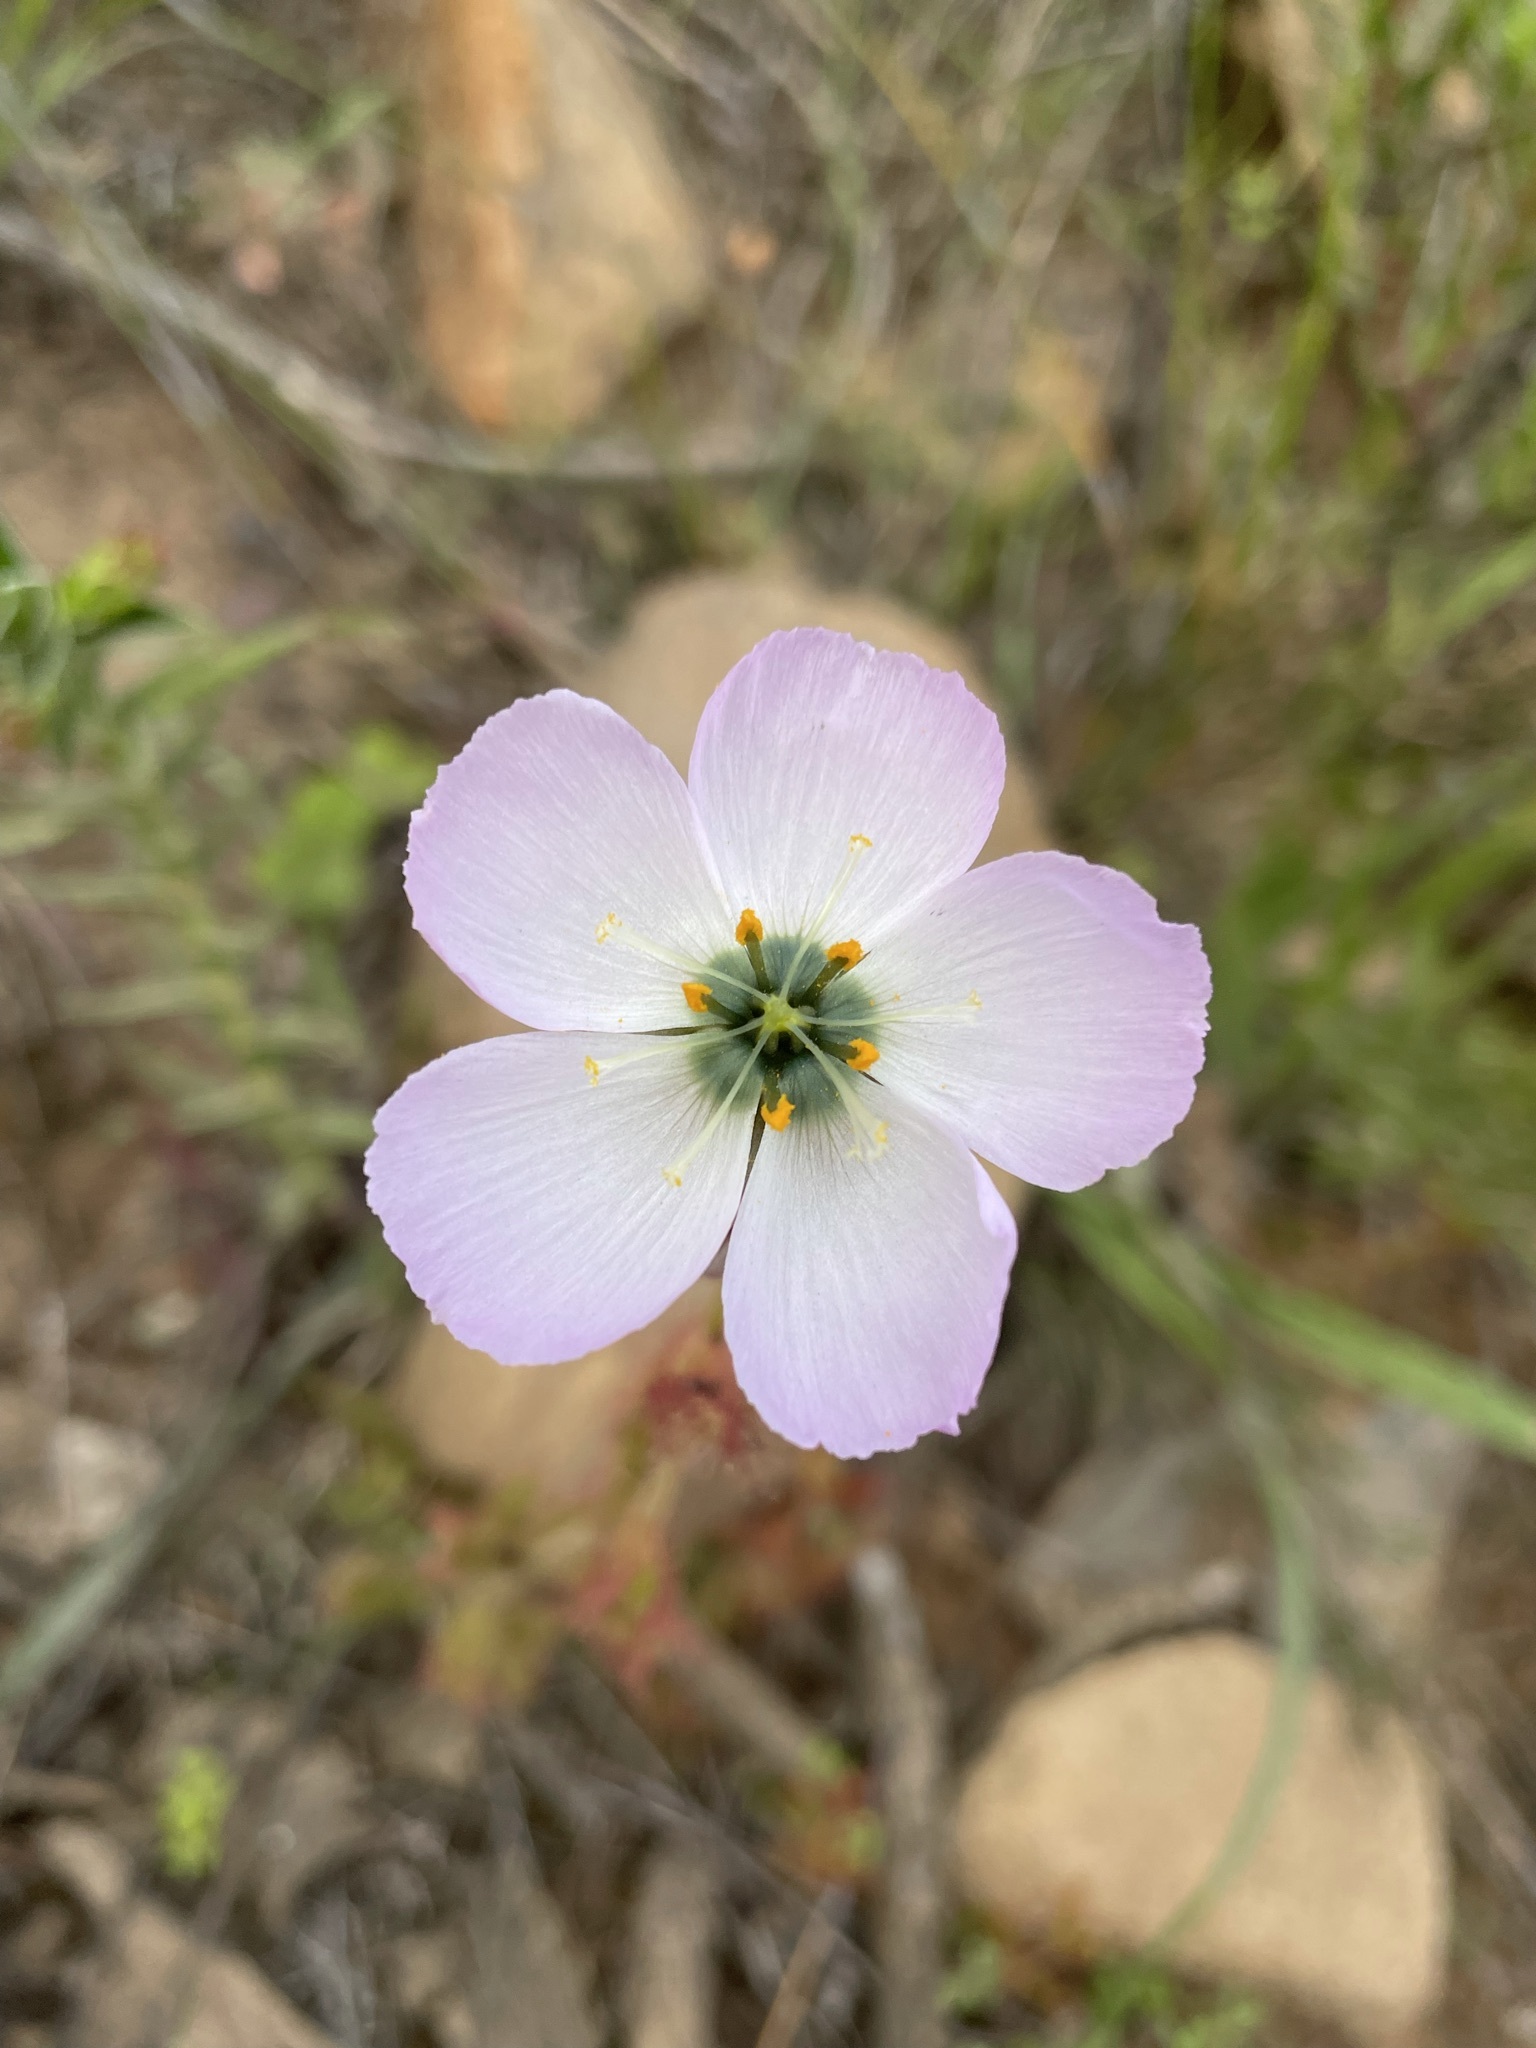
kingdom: Plantae
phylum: Tracheophyta
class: Magnoliopsida
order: Caryophyllales
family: Droseraceae
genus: Drosera
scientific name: Drosera cistiflora
